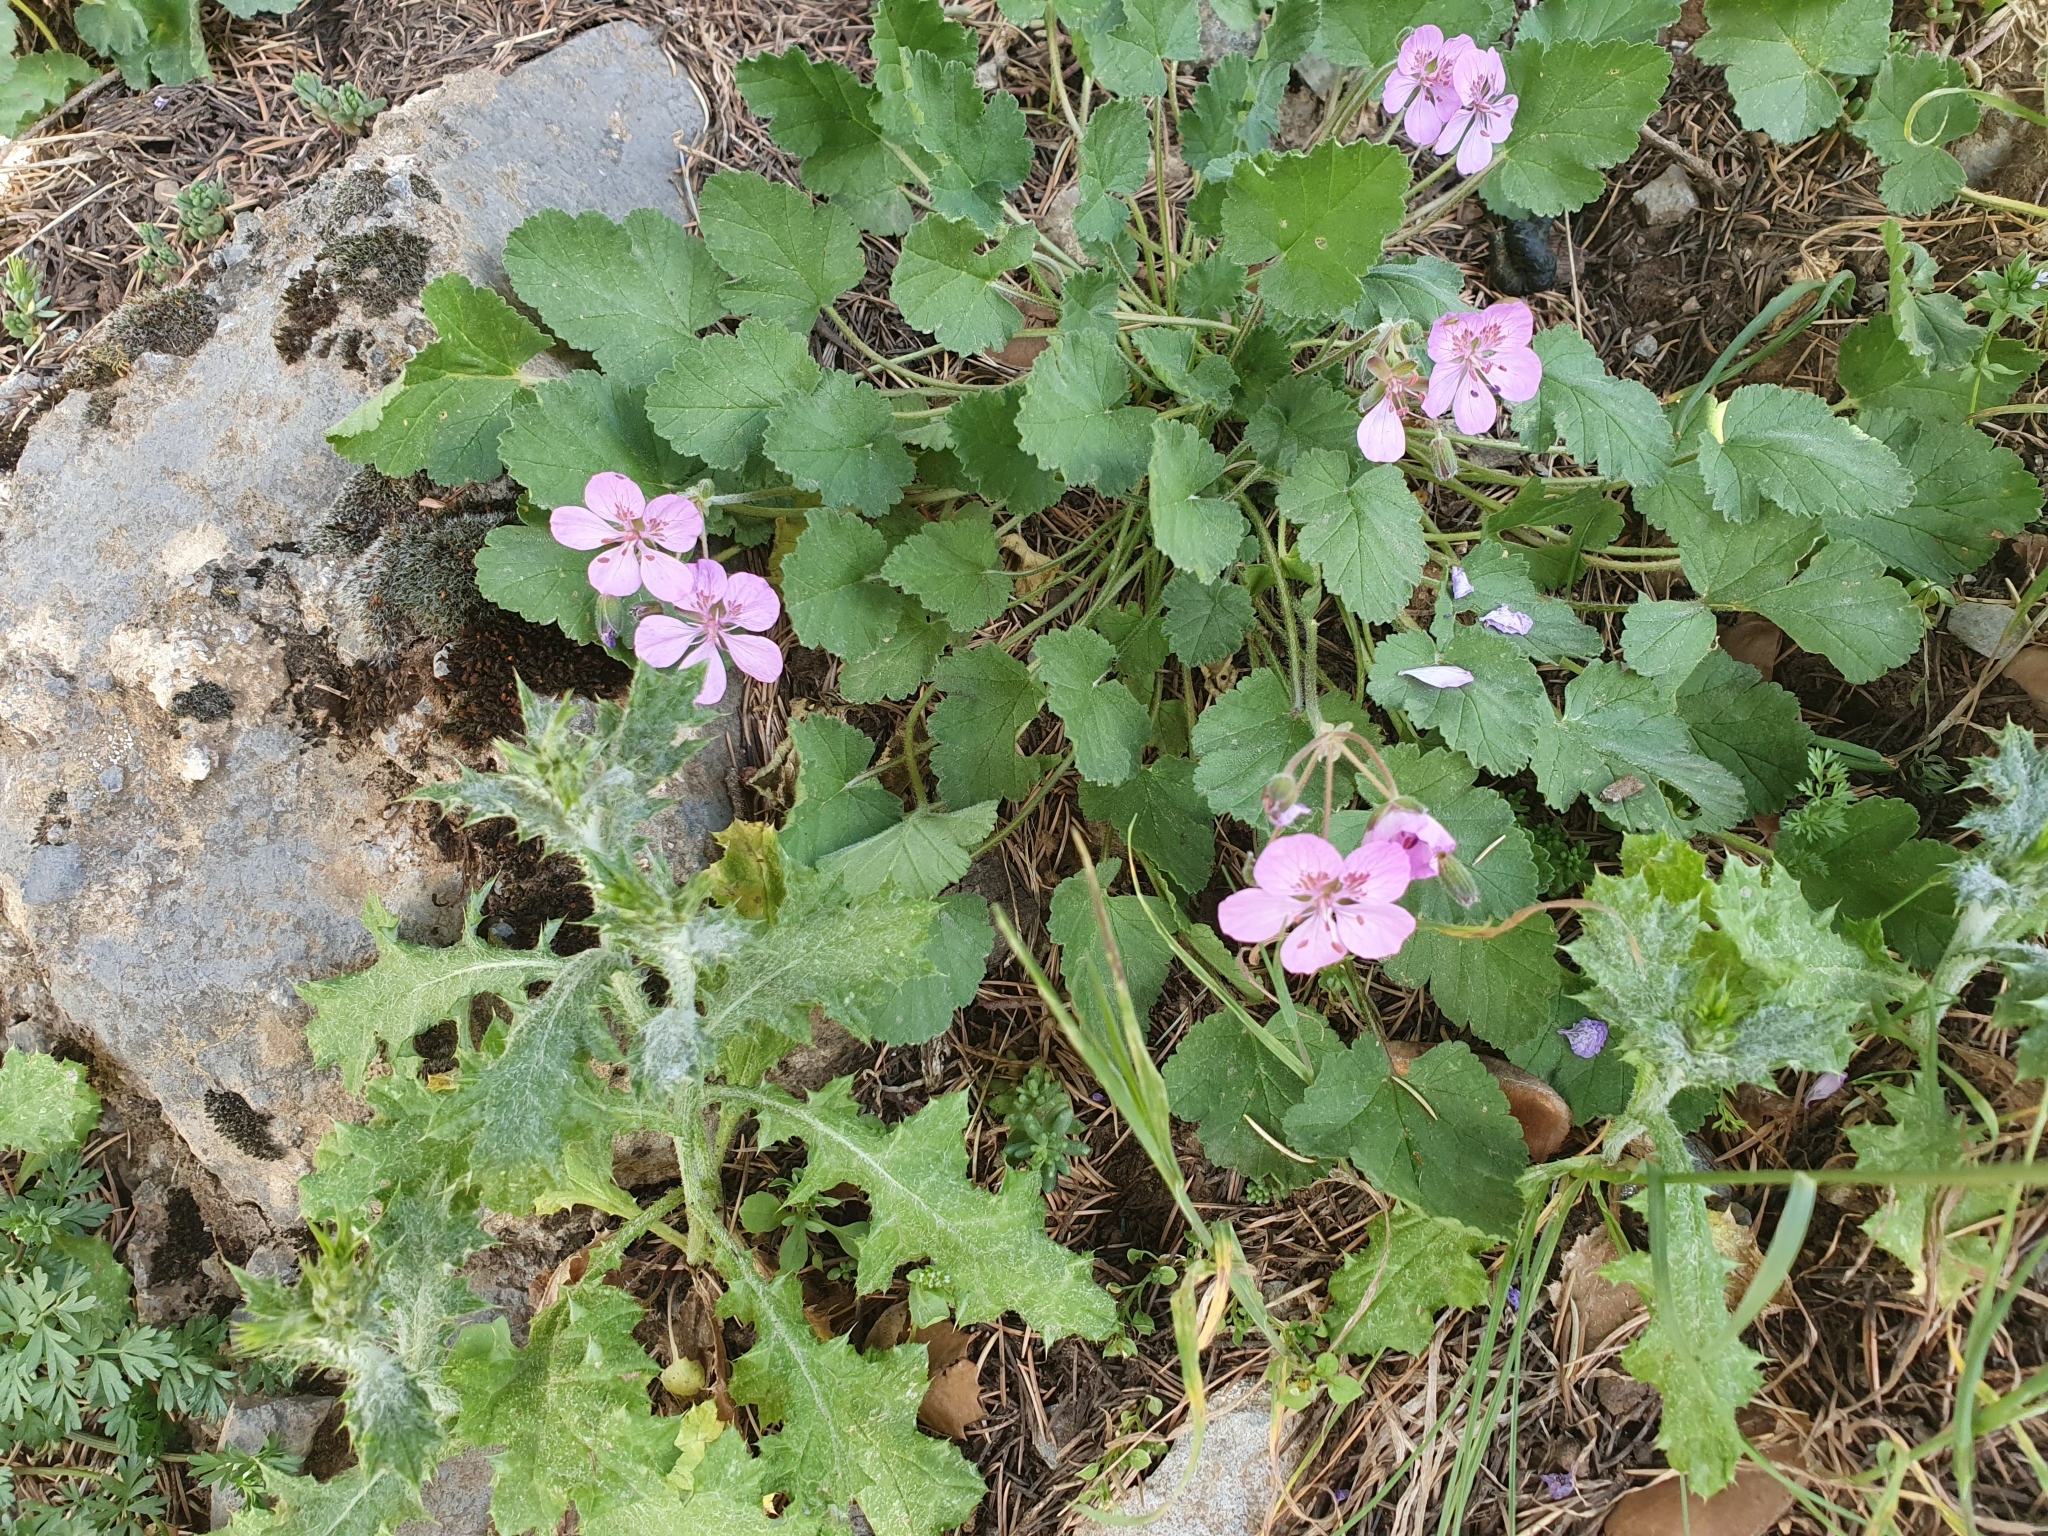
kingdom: Plantae
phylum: Tracheophyta
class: Magnoliopsida
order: Geraniales
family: Geraniaceae
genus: Erodium
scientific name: Erodium battandieranum
